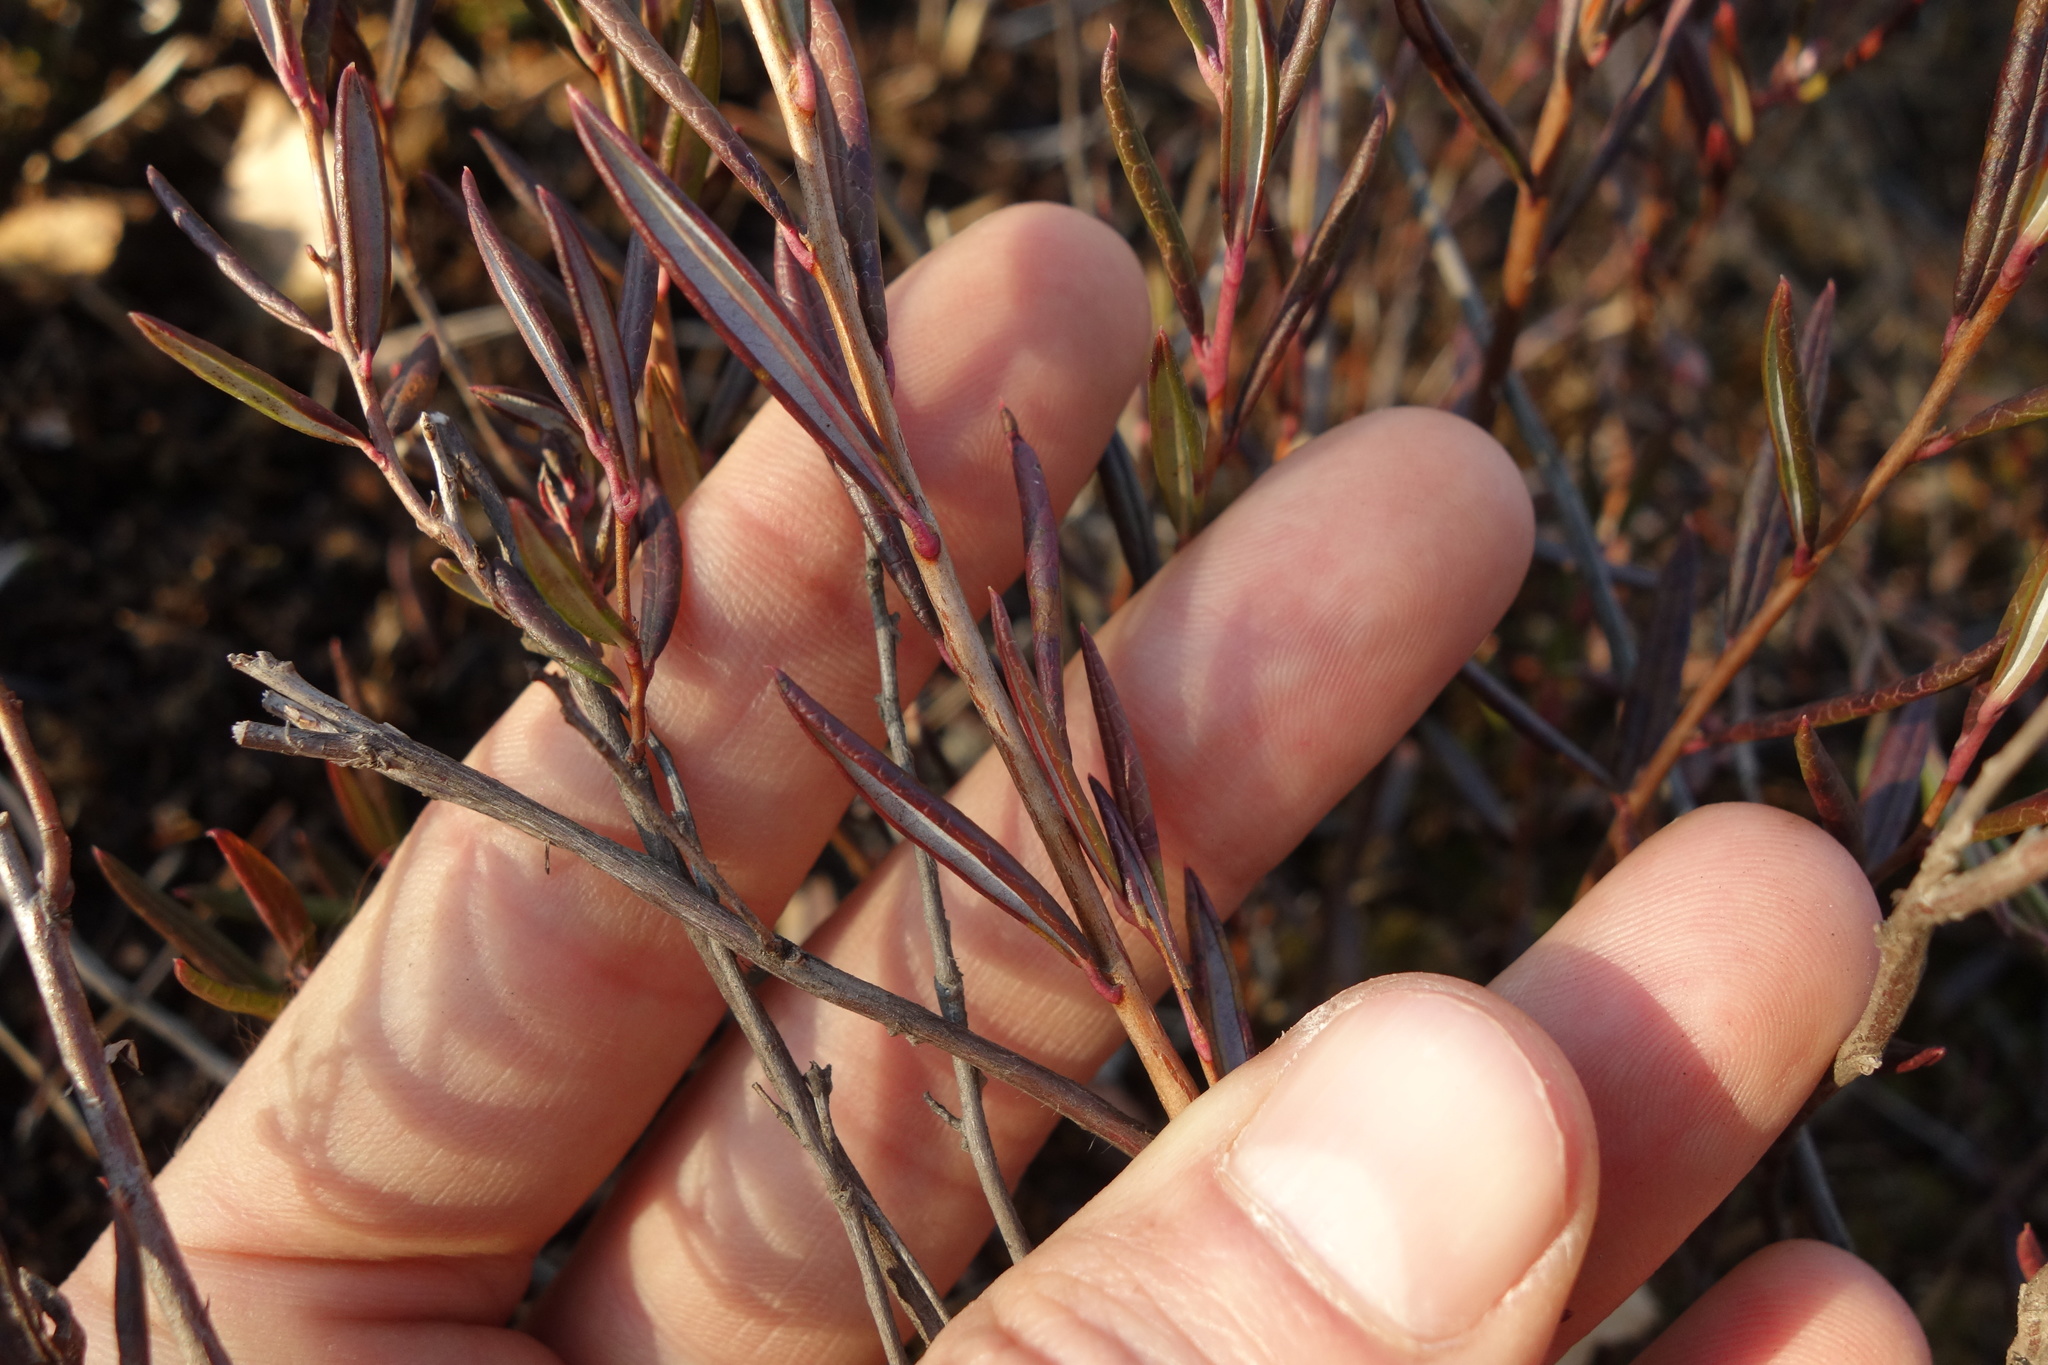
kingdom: Plantae
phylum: Tracheophyta
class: Magnoliopsida
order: Ericales
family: Ericaceae
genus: Andromeda
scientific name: Andromeda polifolia
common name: Bog-rosemary
